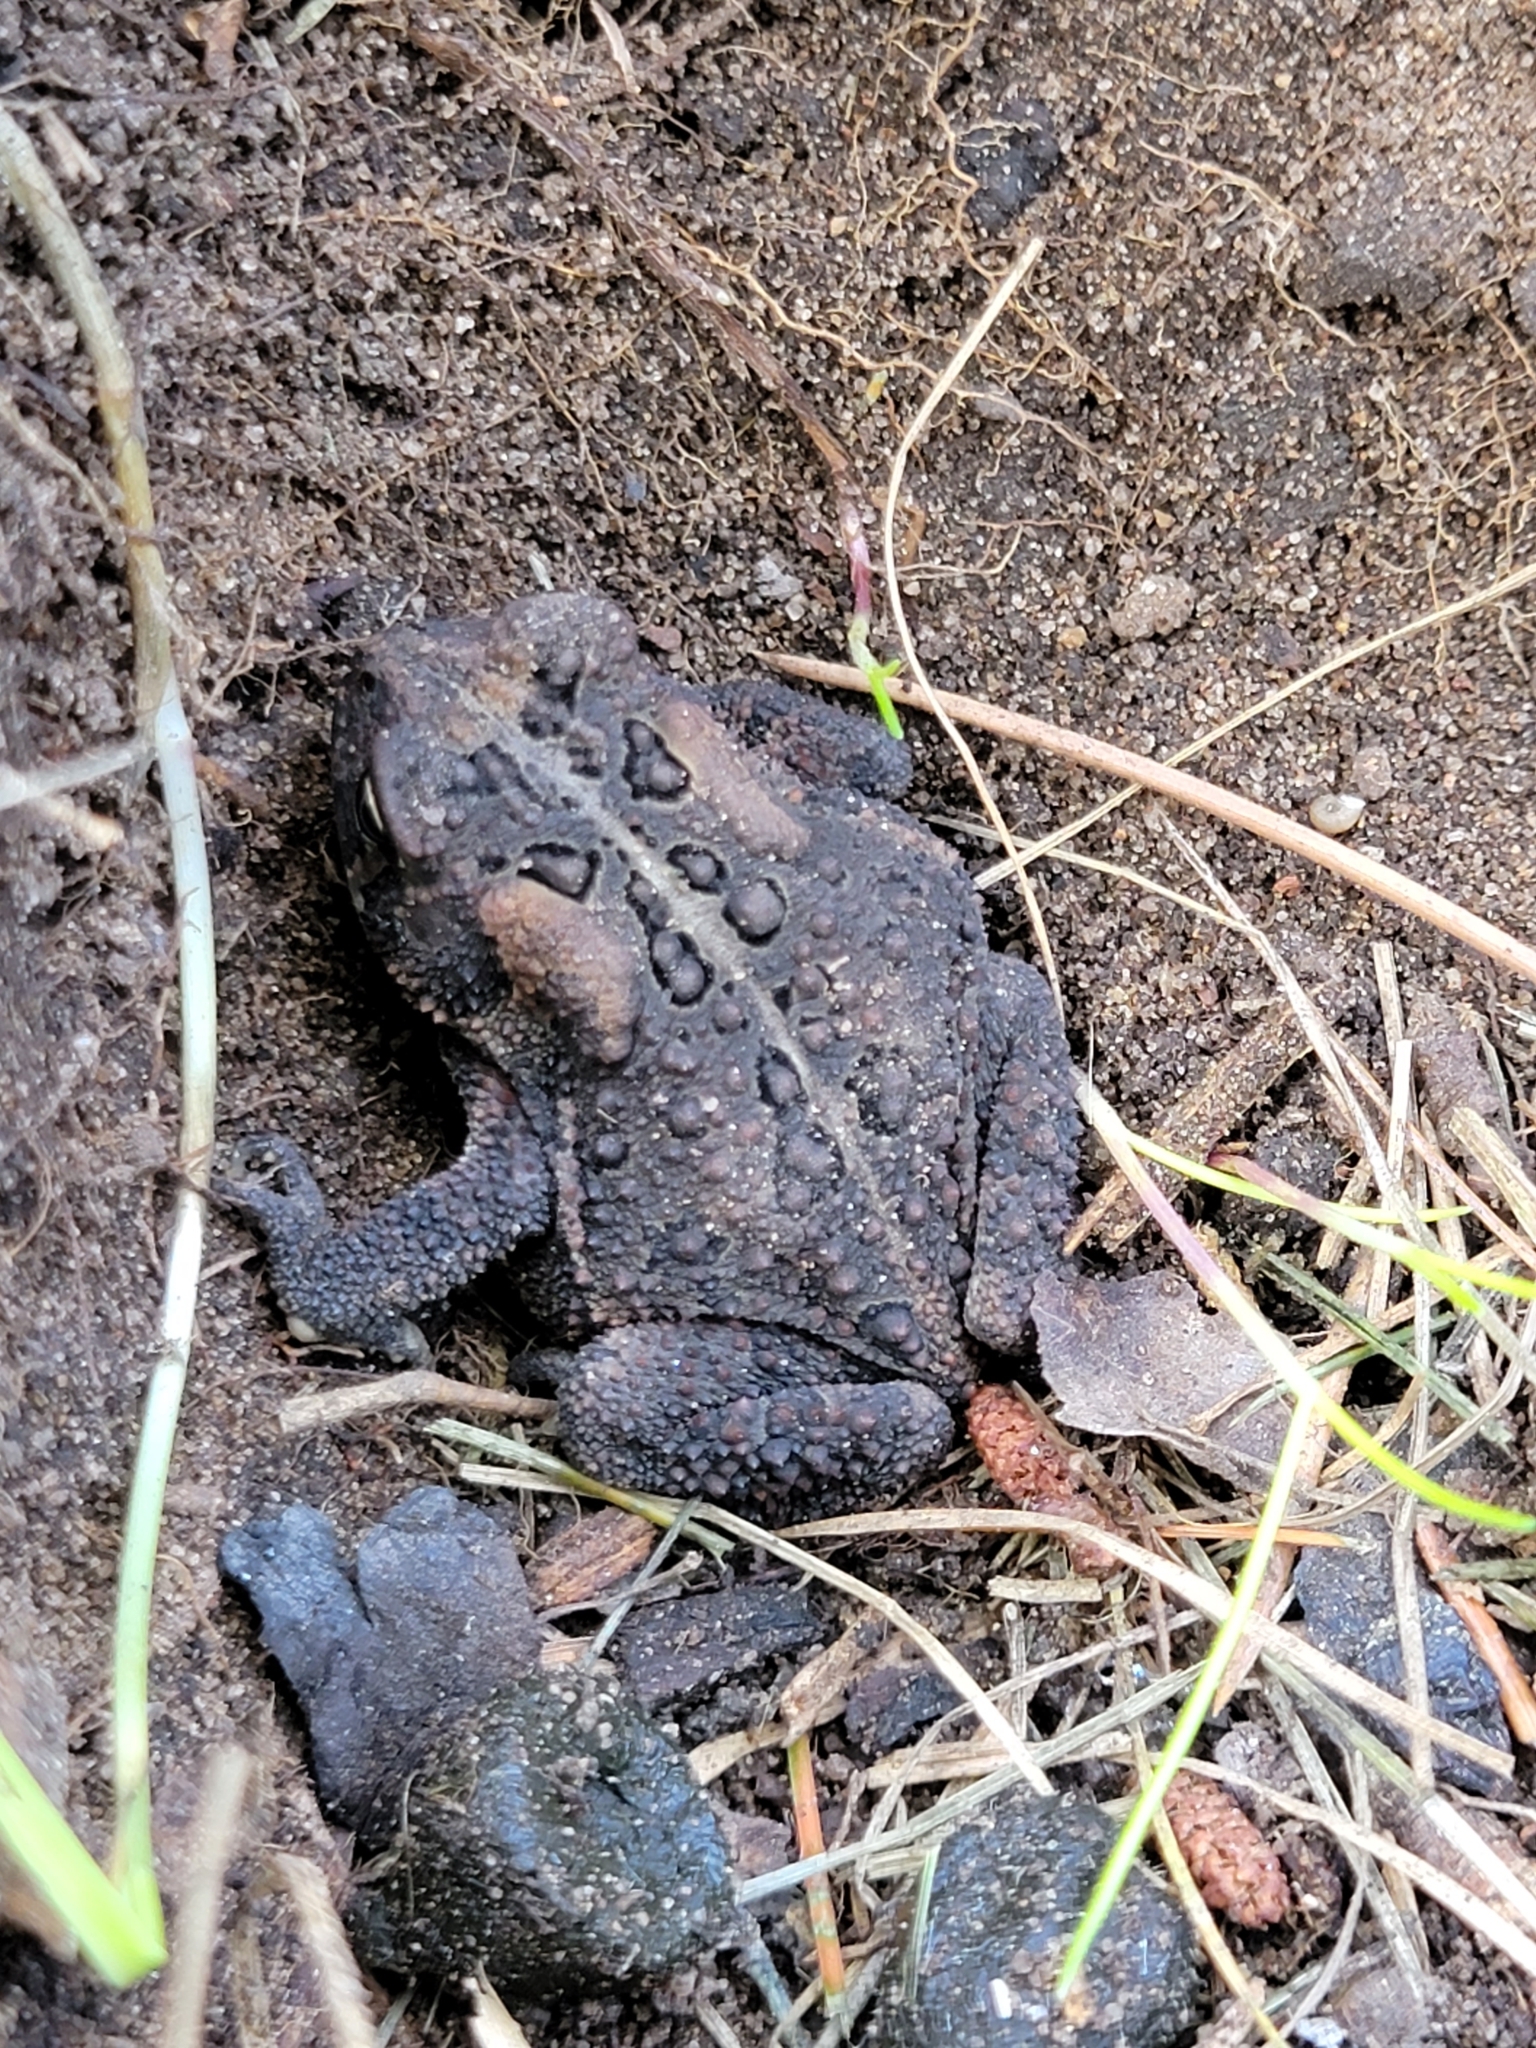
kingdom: Animalia
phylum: Chordata
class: Amphibia
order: Anura
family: Bufonidae
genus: Anaxyrus
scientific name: Anaxyrus americanus
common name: American toad
